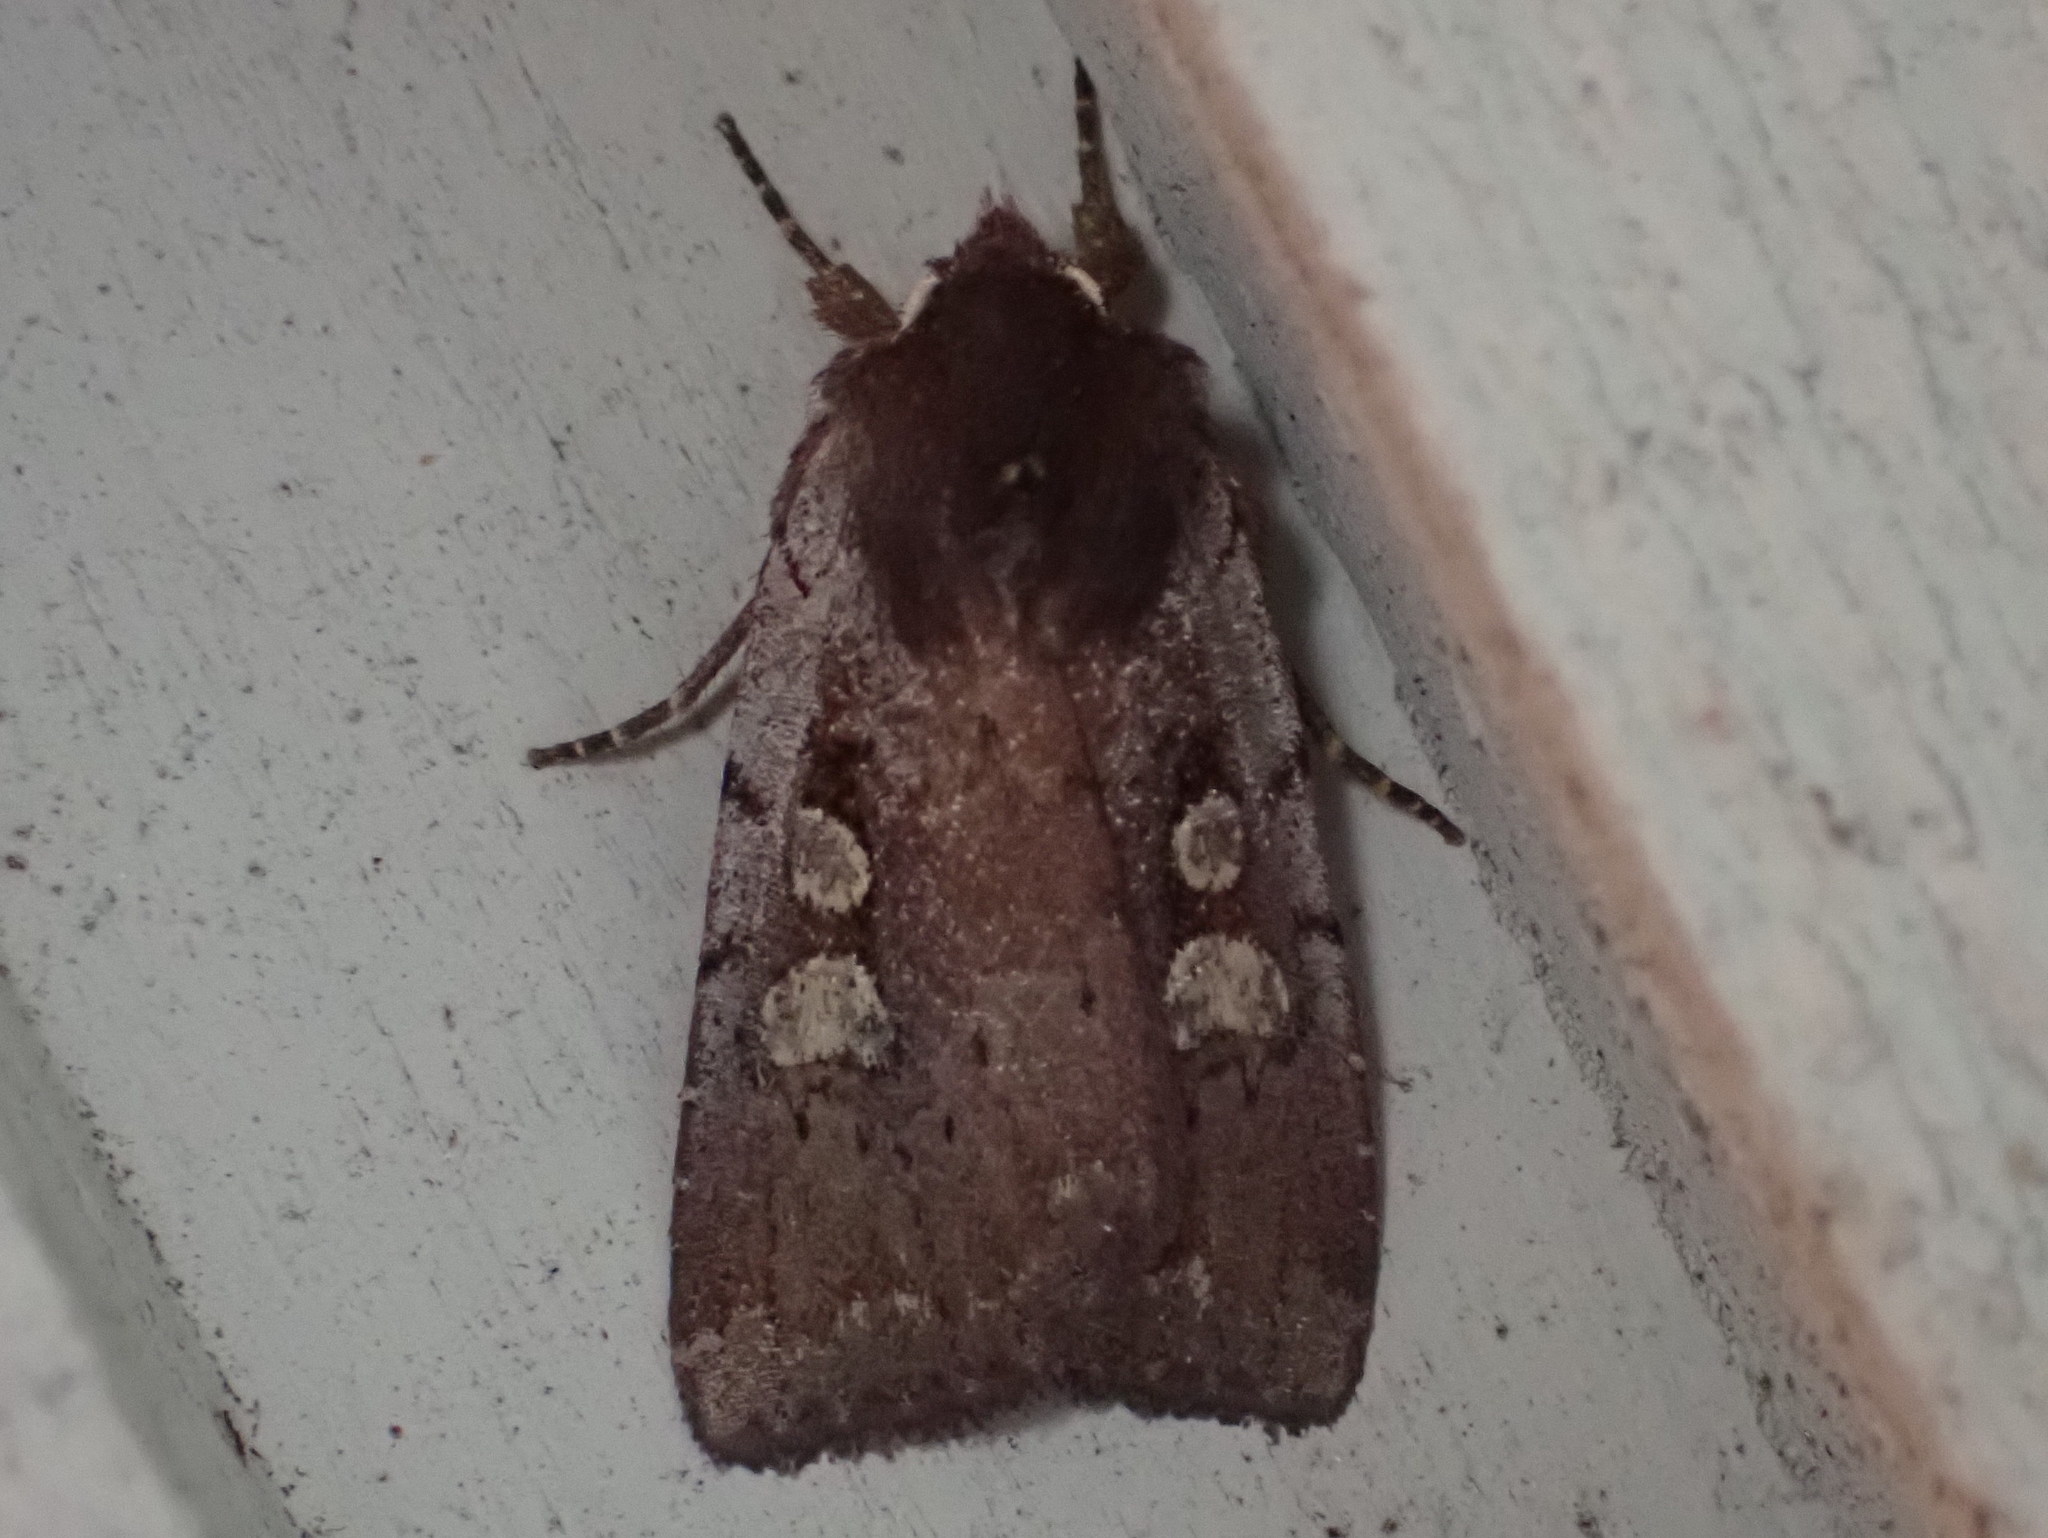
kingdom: Animalia
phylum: Arthropoda
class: Insecta
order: Lepidoptera
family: Noctuidae
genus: Xestia
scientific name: Xestia dilucida
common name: Dull reddish dart
